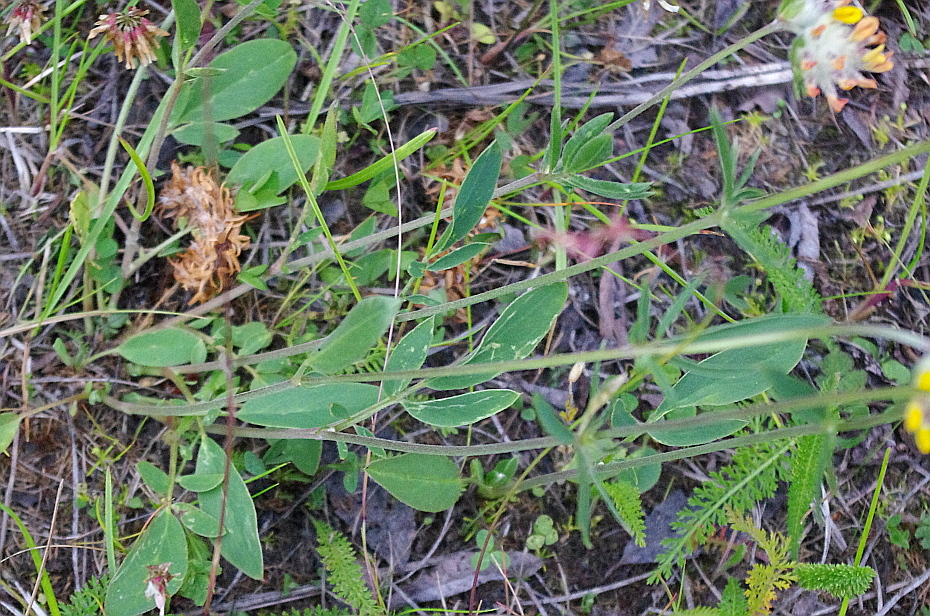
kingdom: Plantae
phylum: Tracheophyta
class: Magnoliopsida
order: Fabales
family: Fabaceae
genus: Anthyllis
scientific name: Anthyllis vulneraria
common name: Kidney vetch
